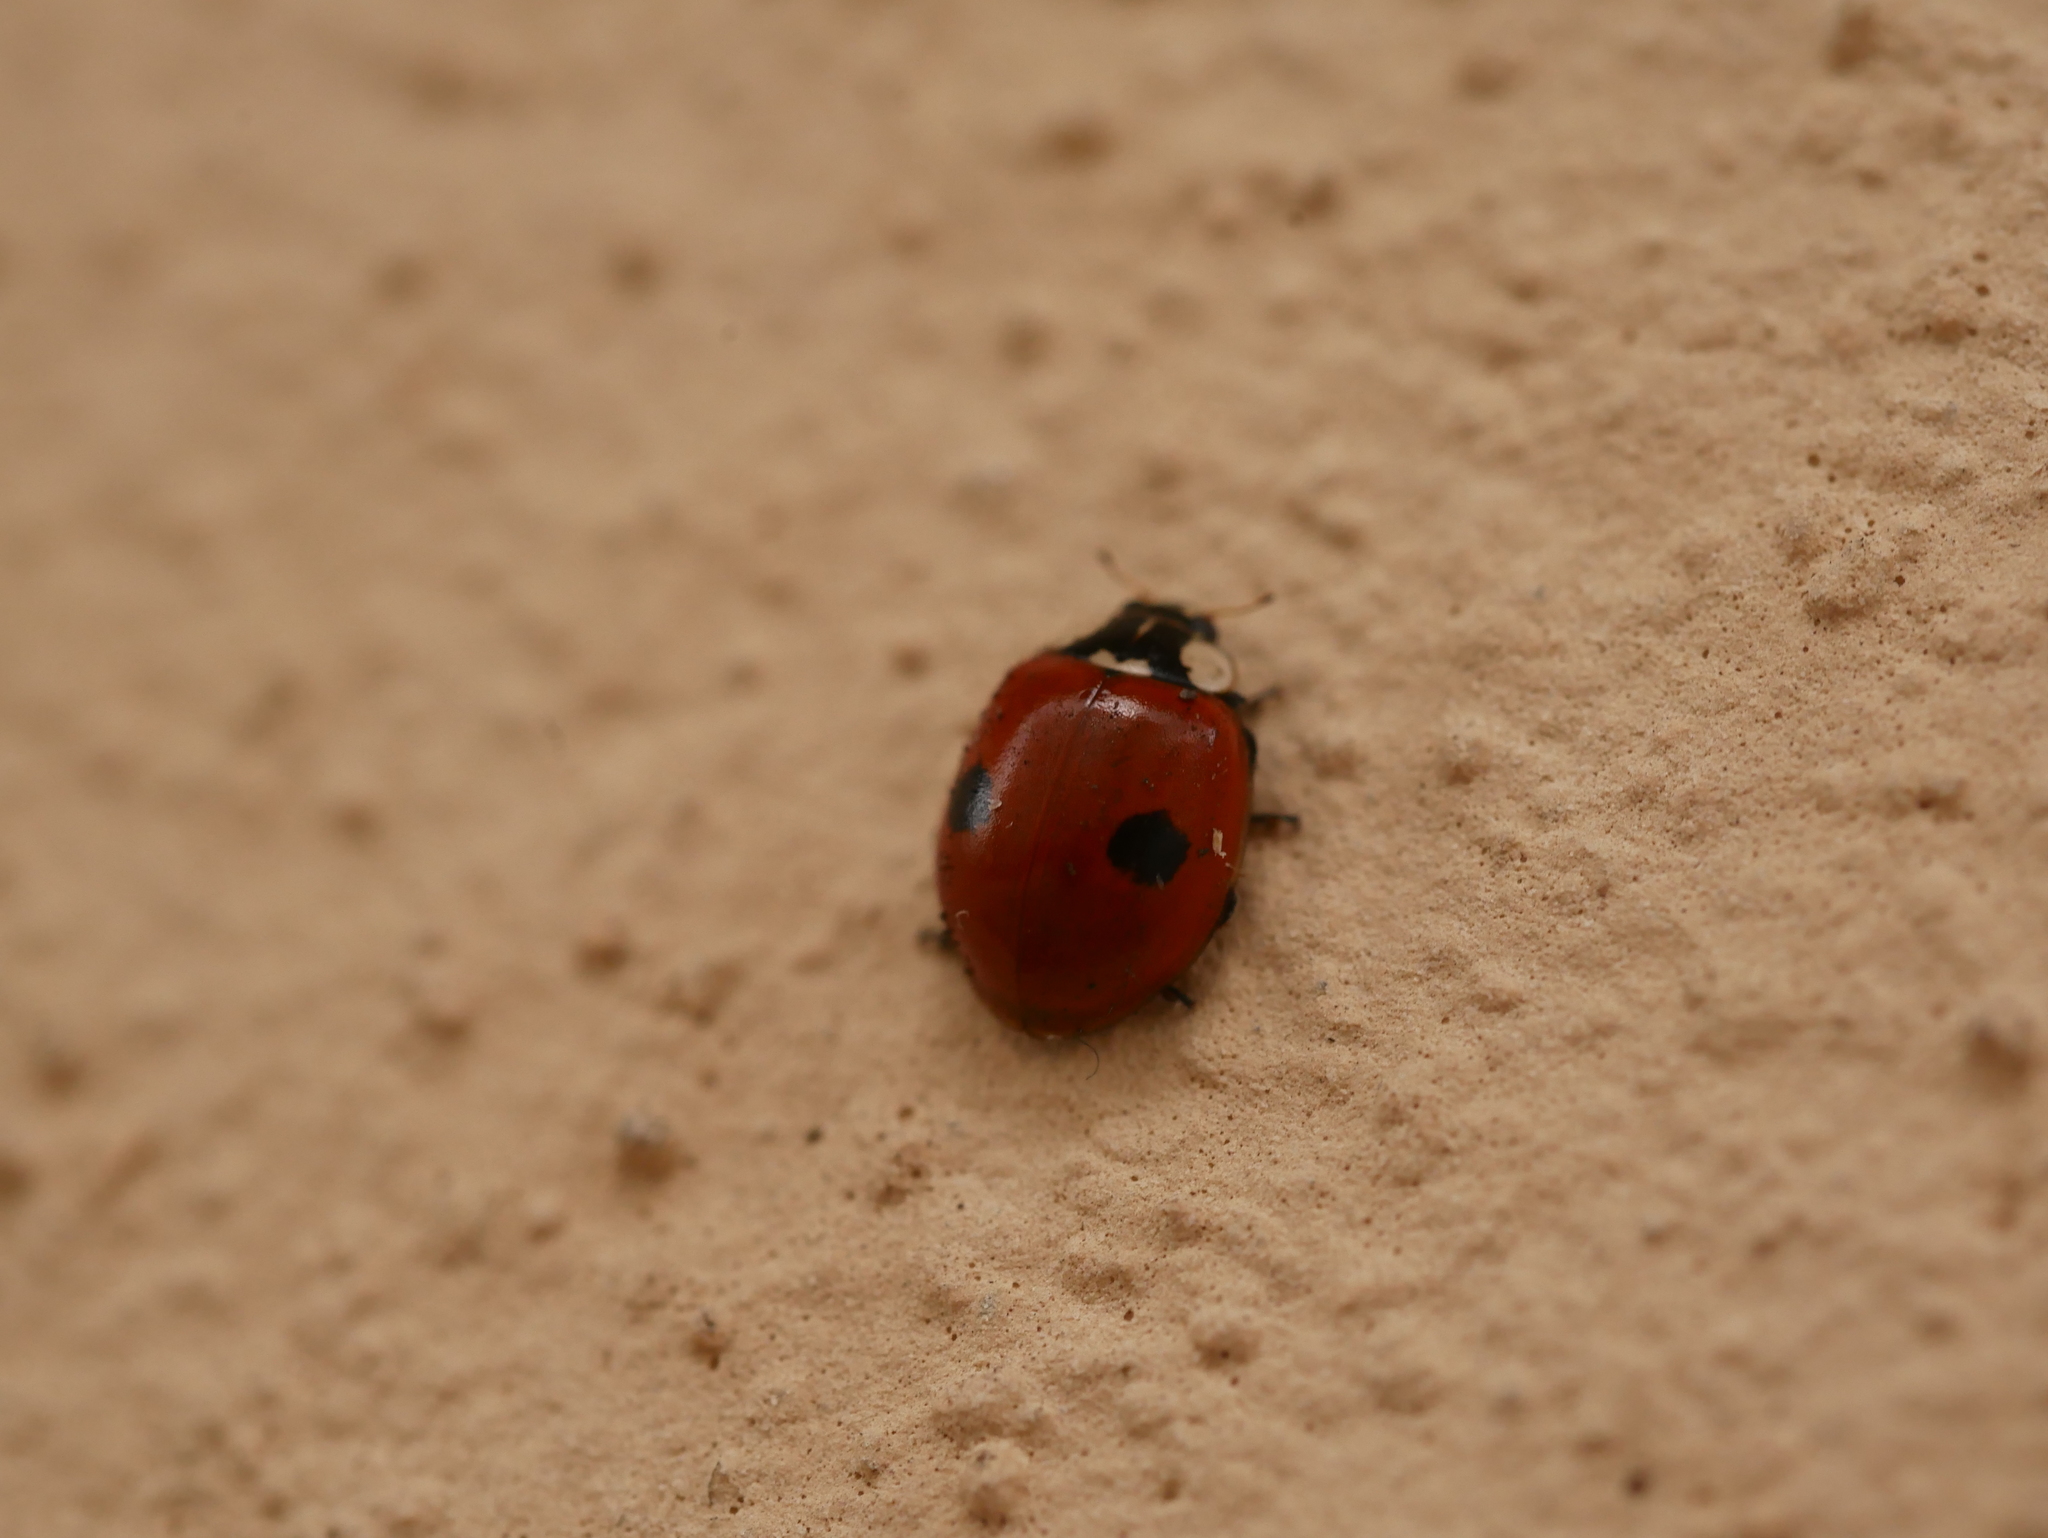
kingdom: Animalia
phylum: Arthropoda
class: Insecta
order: Coleoptera
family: Coccinellidae
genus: Adalia
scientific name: Adalia bipunctata
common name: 2-spot ladybird
